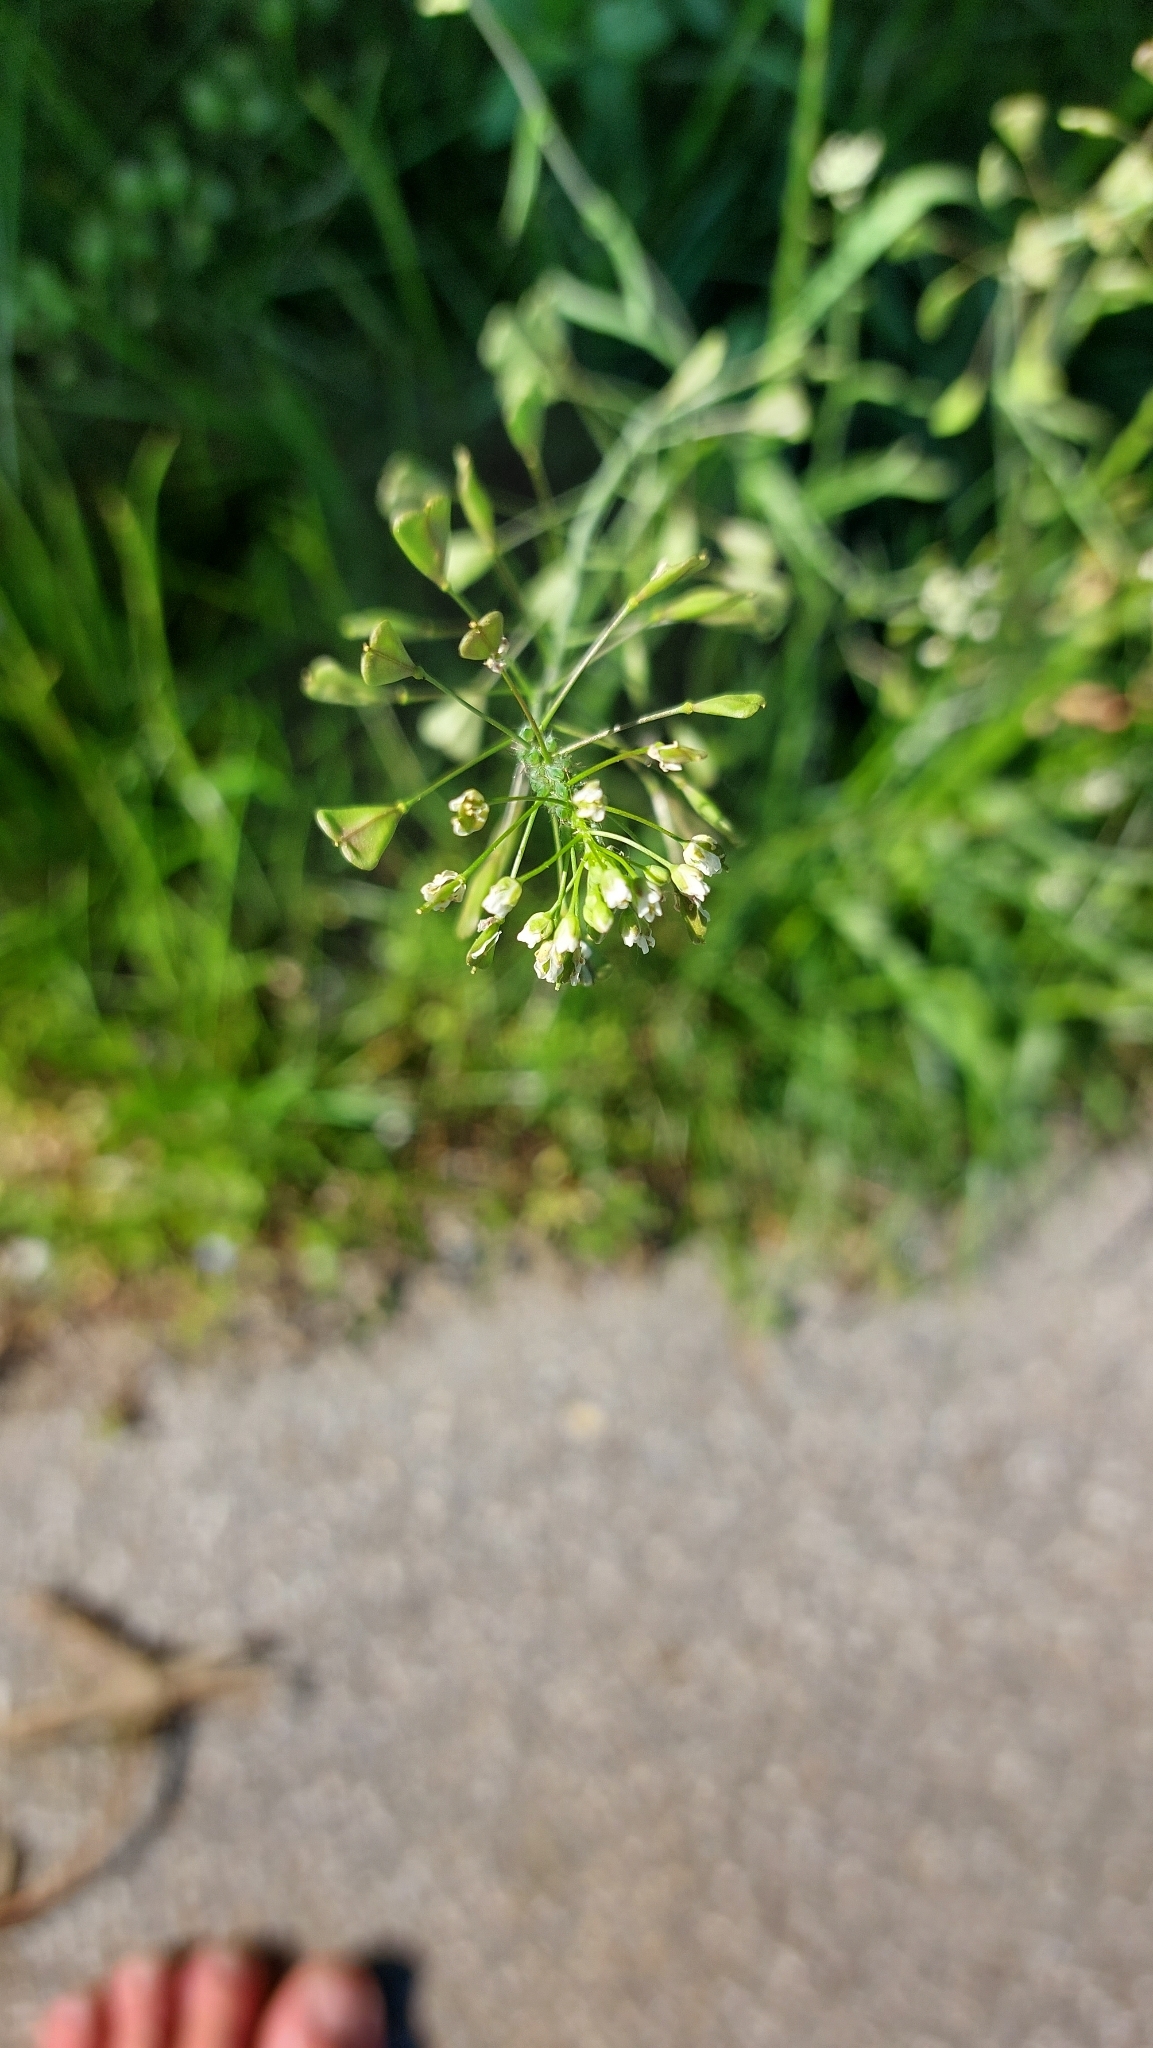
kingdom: Plantae
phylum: Tracheophyta
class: Magnoliopsida
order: Brassicales
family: Brassicaceae
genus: Capsella
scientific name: Capsella bursa-pastoris
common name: Shepherd's purse
